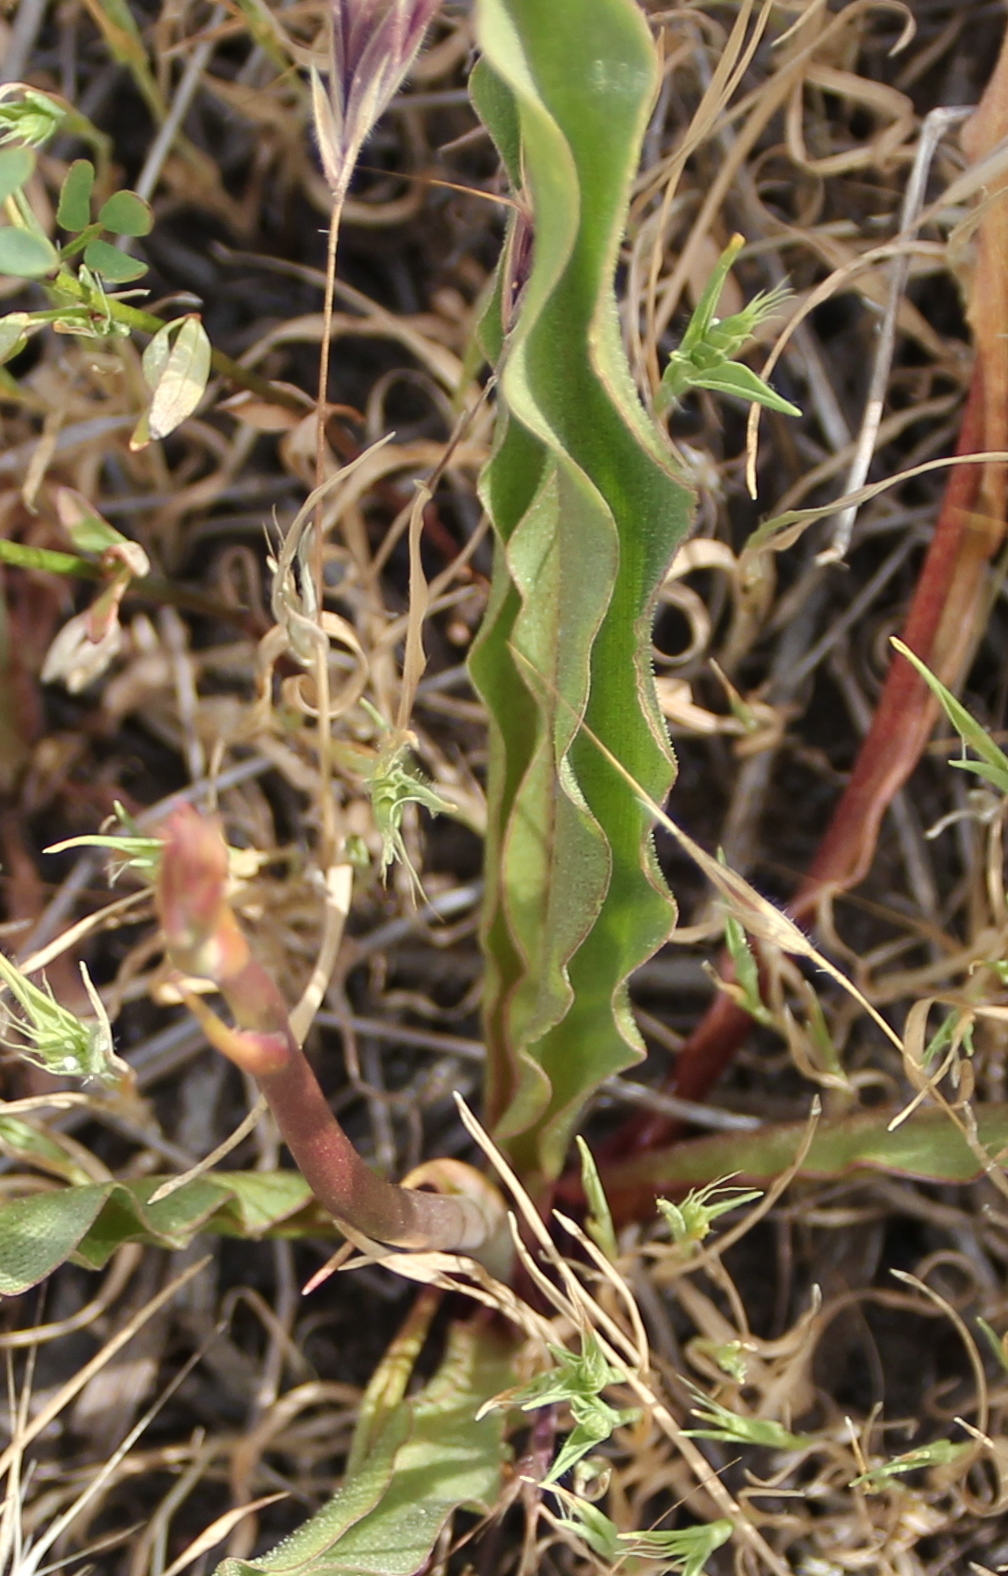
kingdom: Plantae
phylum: Tracheophyta
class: Liliopsida
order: Asparagales
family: Asparagaceae
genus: Hooveria
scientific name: Hooveria parviflora
